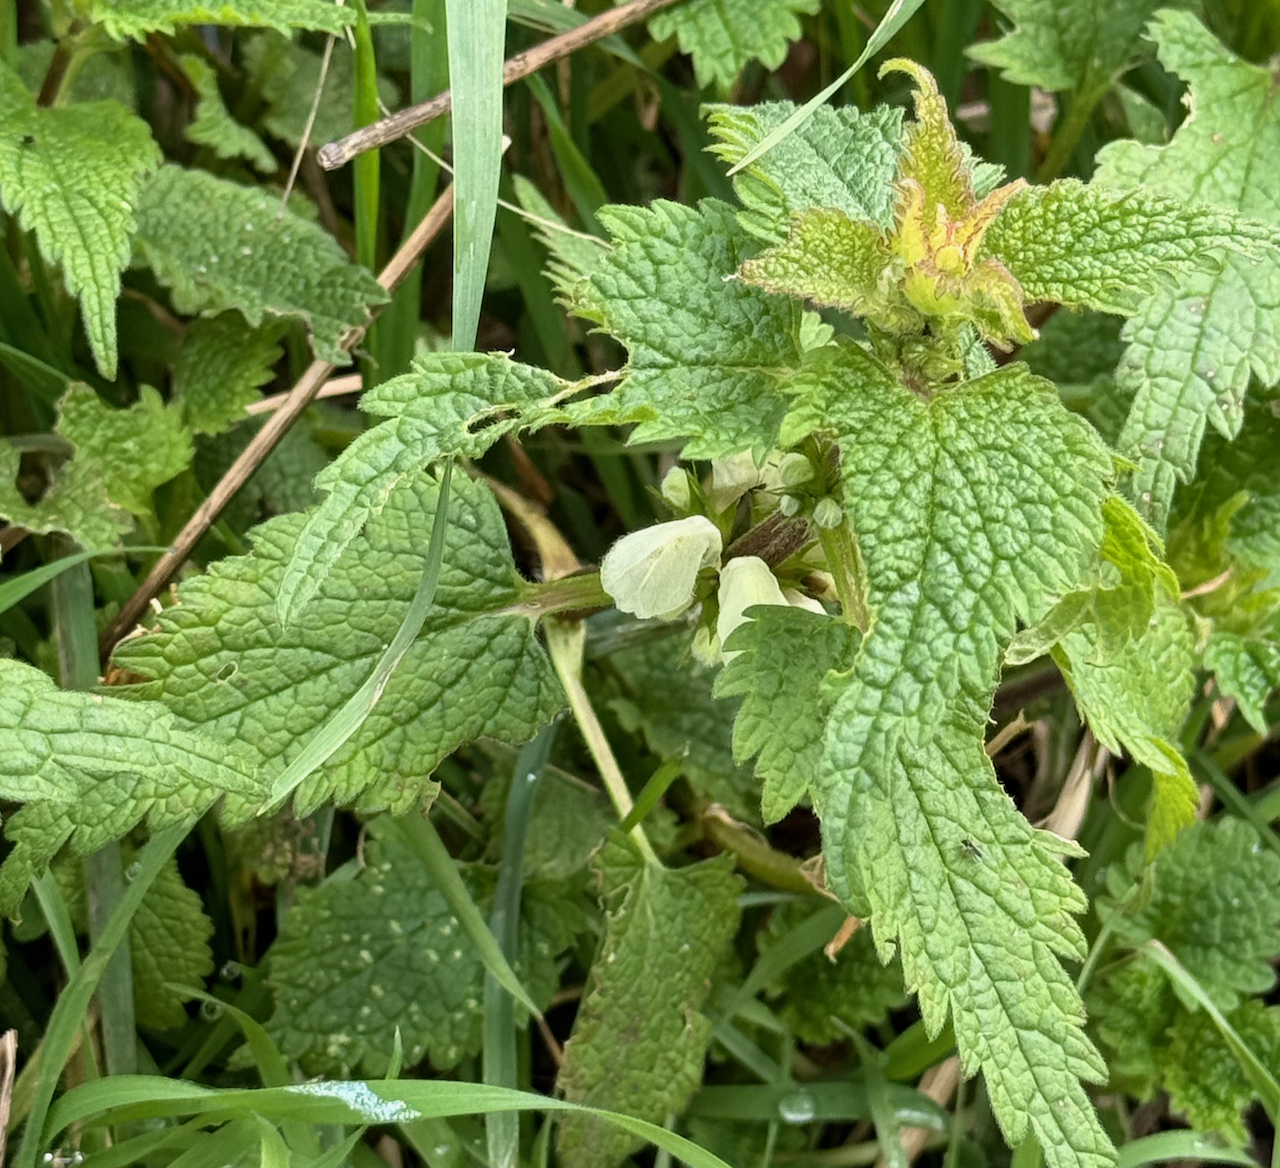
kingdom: Plantae
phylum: Tracheophyta
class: Magnoliopsida
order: Lamiales
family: Lamiaceae
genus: Lamium
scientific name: Lamium album
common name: White dead-nettle
